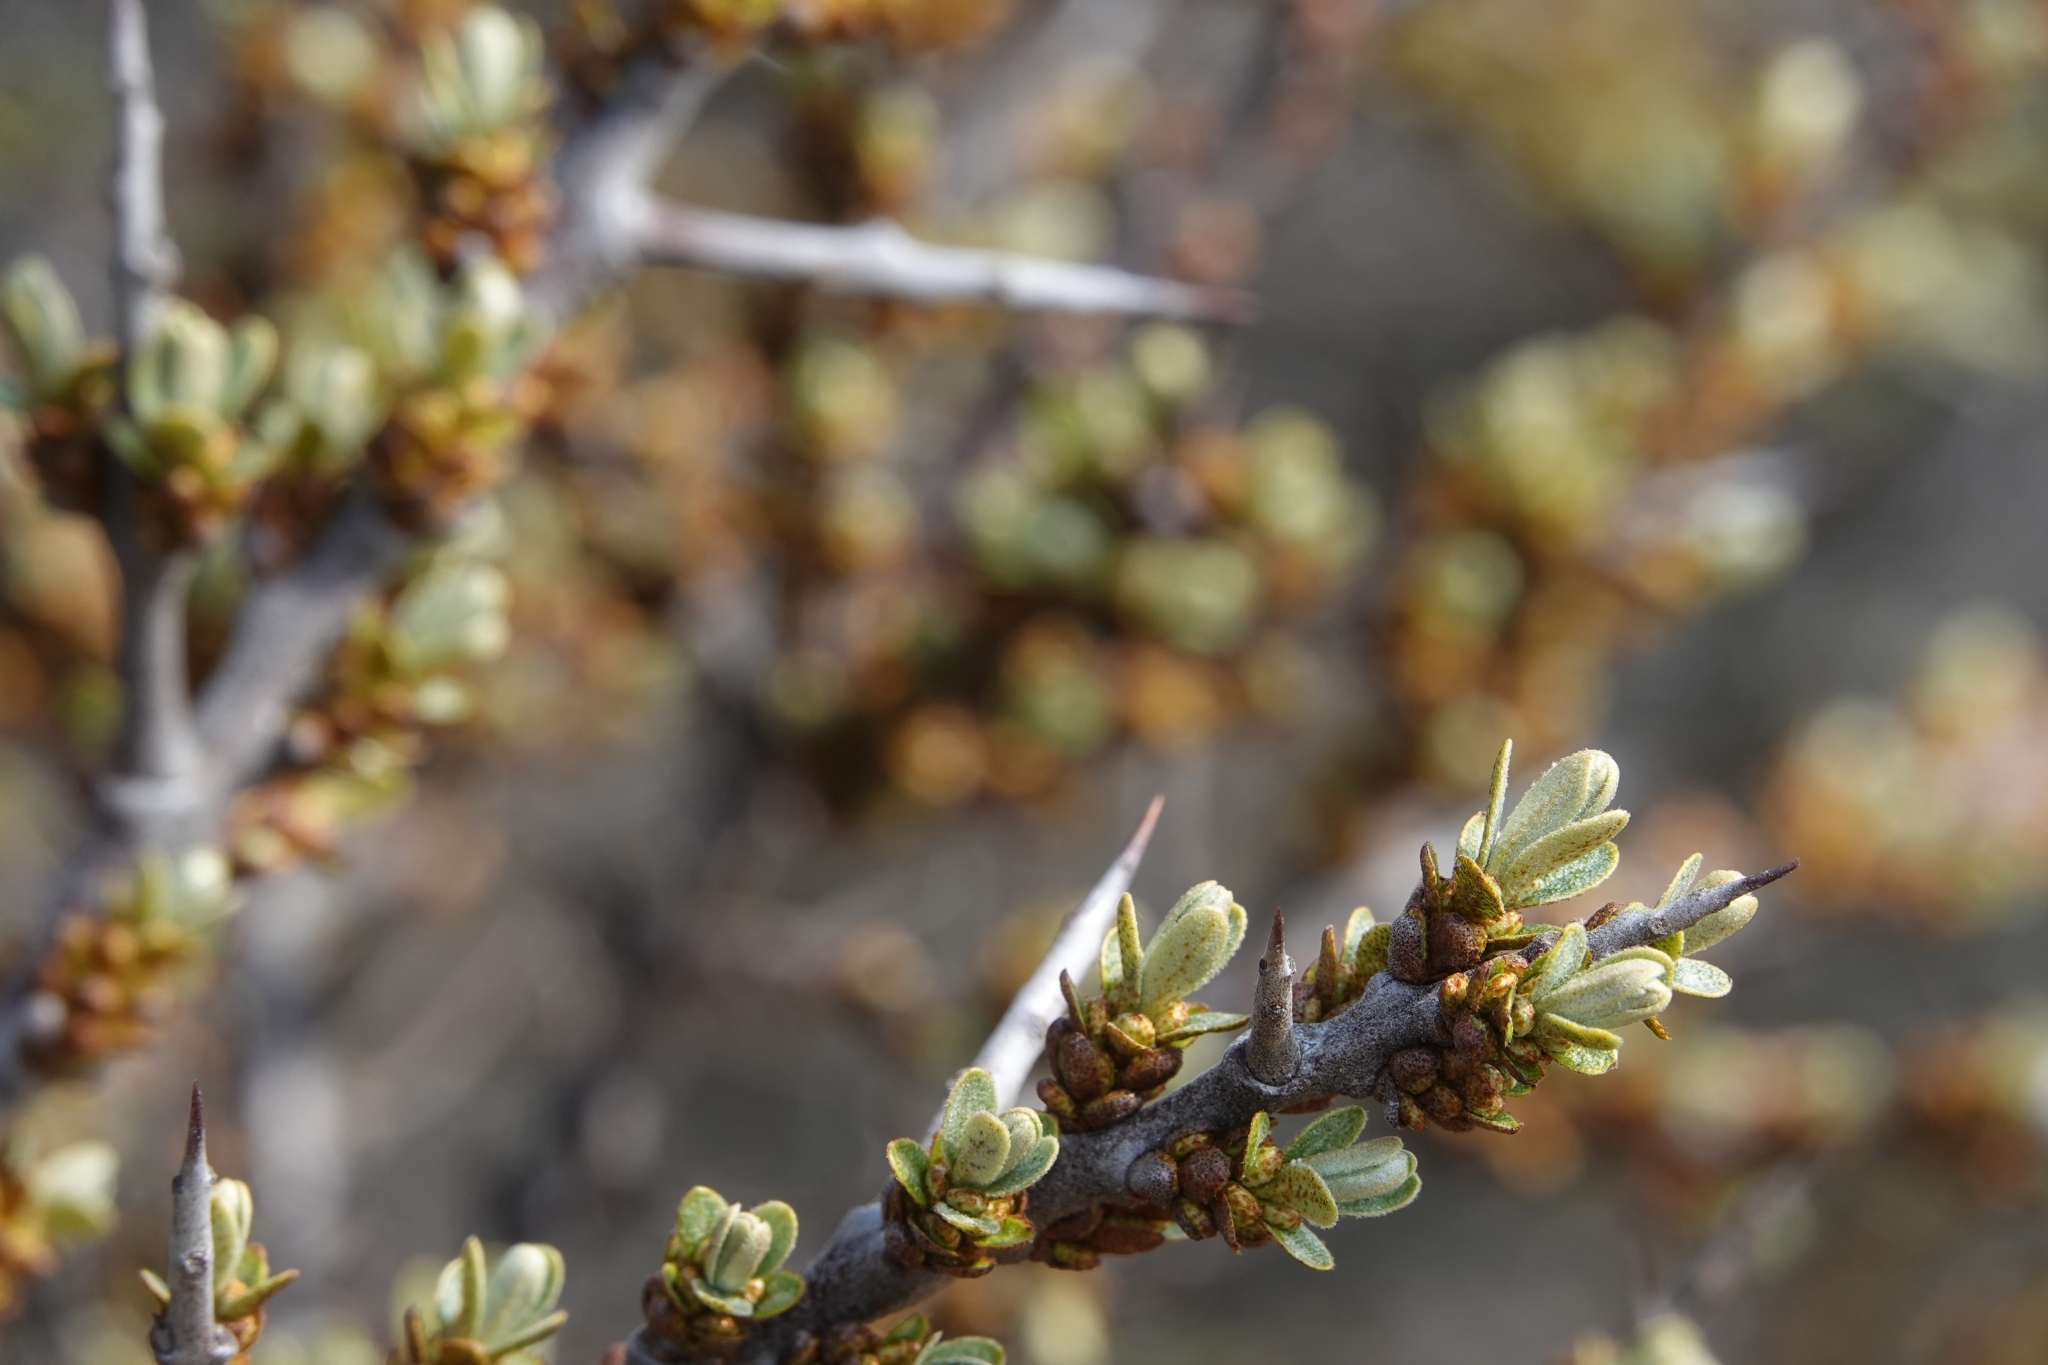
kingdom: Plantae
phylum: Tracheophyta
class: Magnoliopsida
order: Rosales
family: Elaeagnaceae
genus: Hippophae
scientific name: Hippophae rhamnoides
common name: Sea-buckthorn
